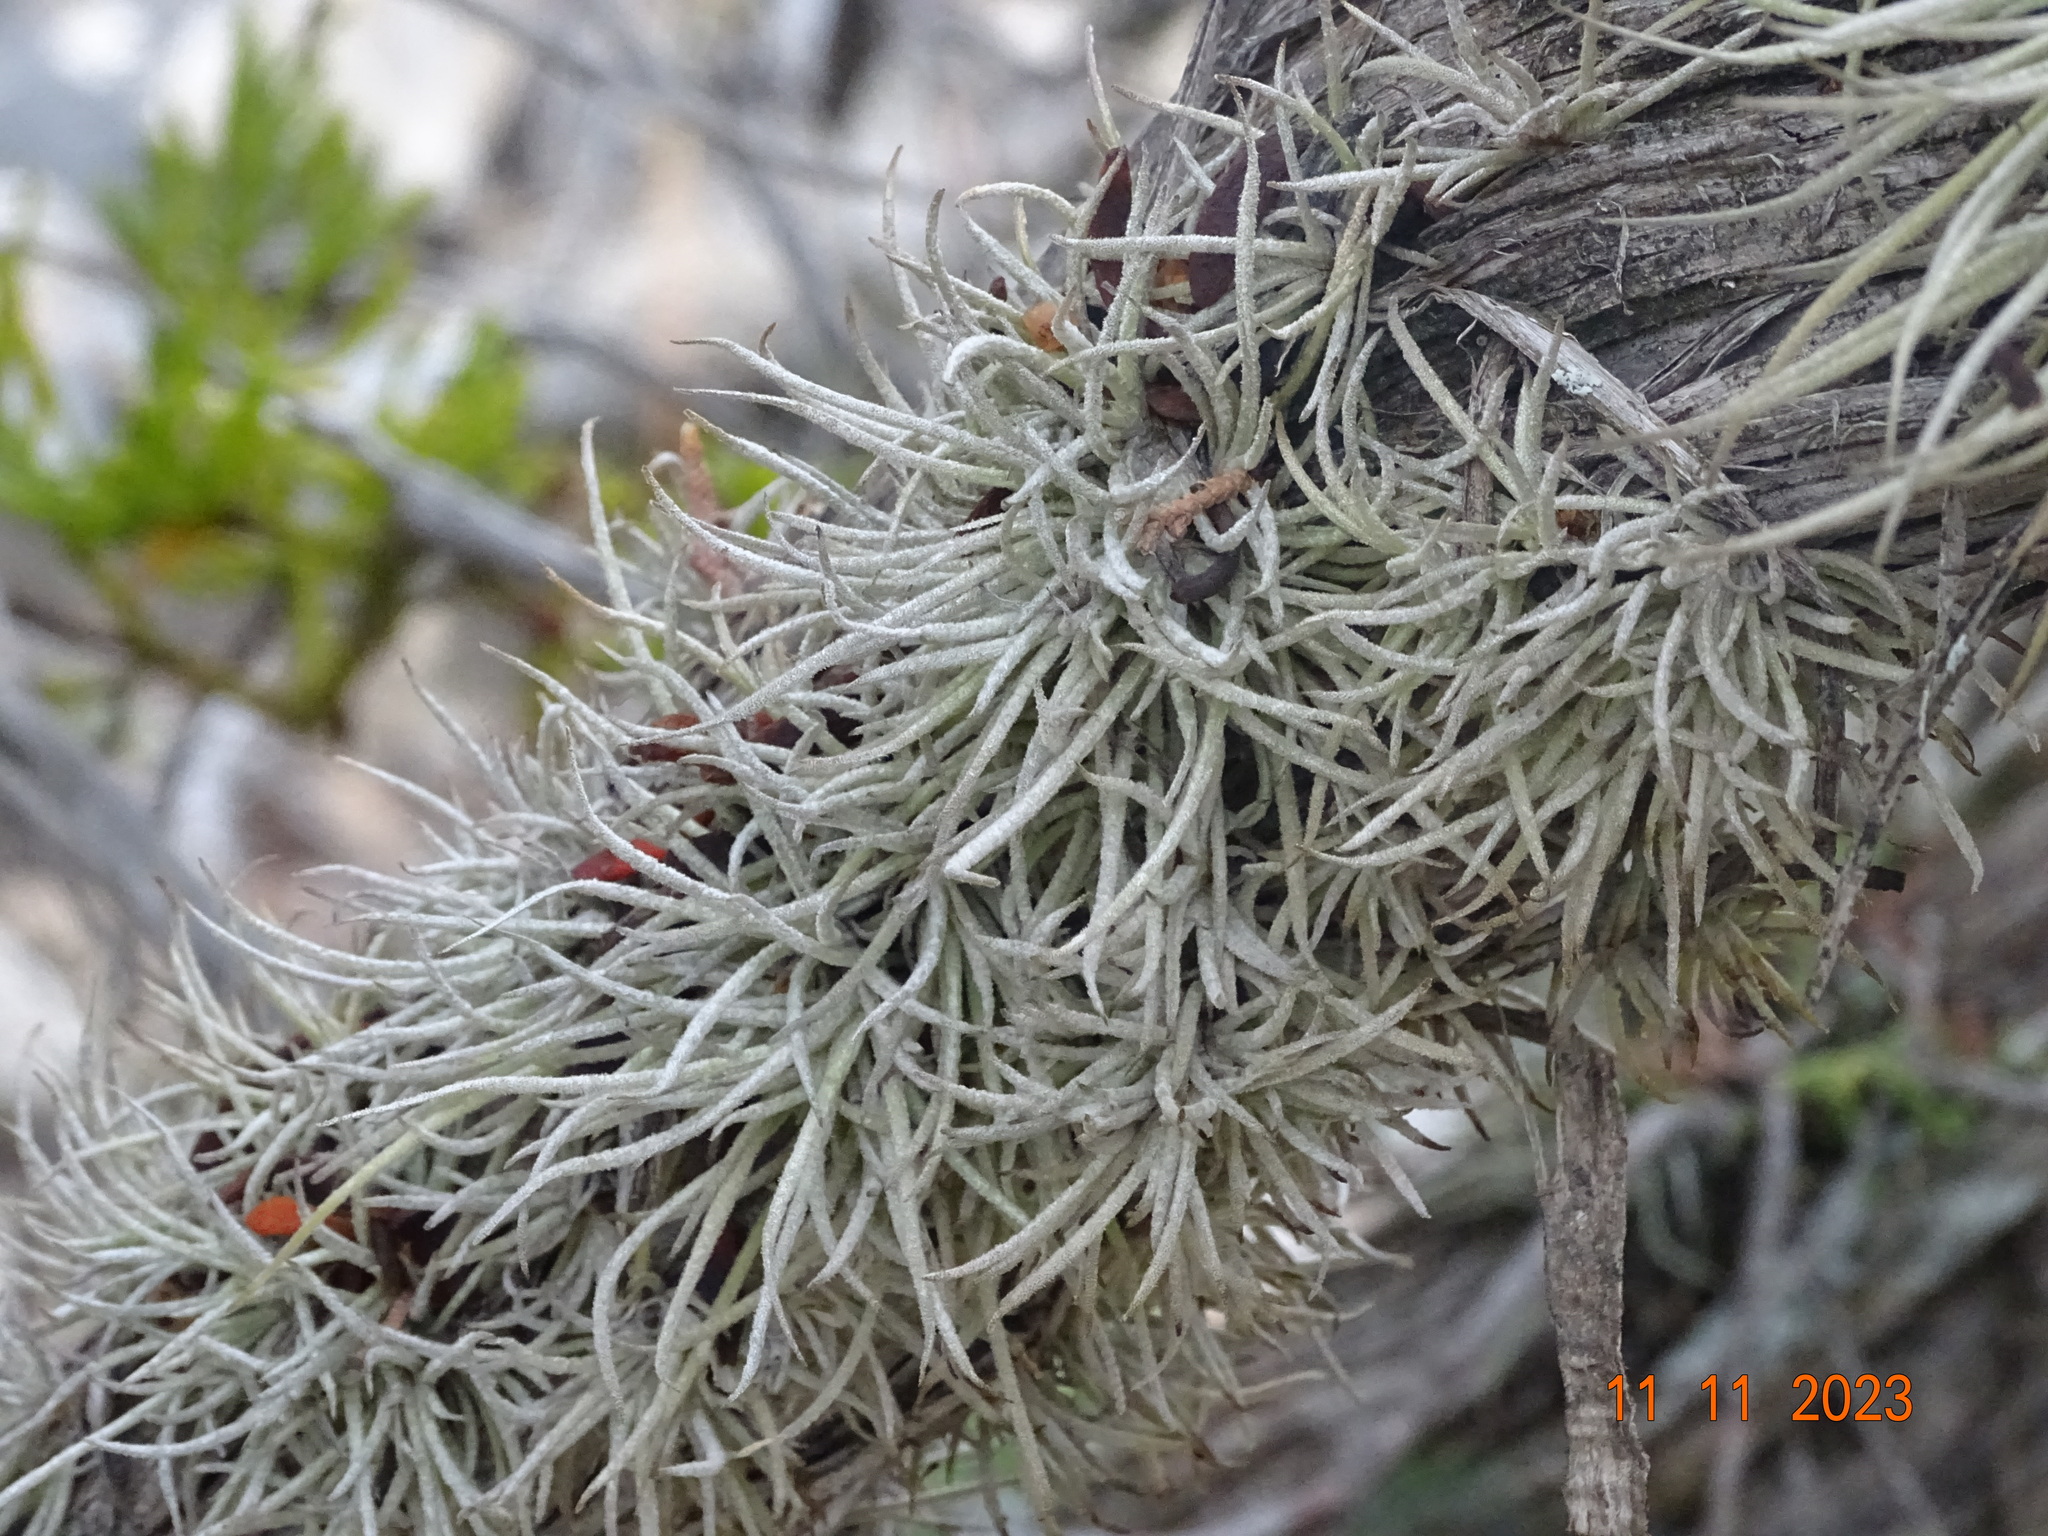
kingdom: Plantae
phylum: Tracheophyta
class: Liliopsida
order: Poales
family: Bromeliaceae
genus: Tillandsia
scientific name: Tillandsia recurvata
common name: Small ballmoss
